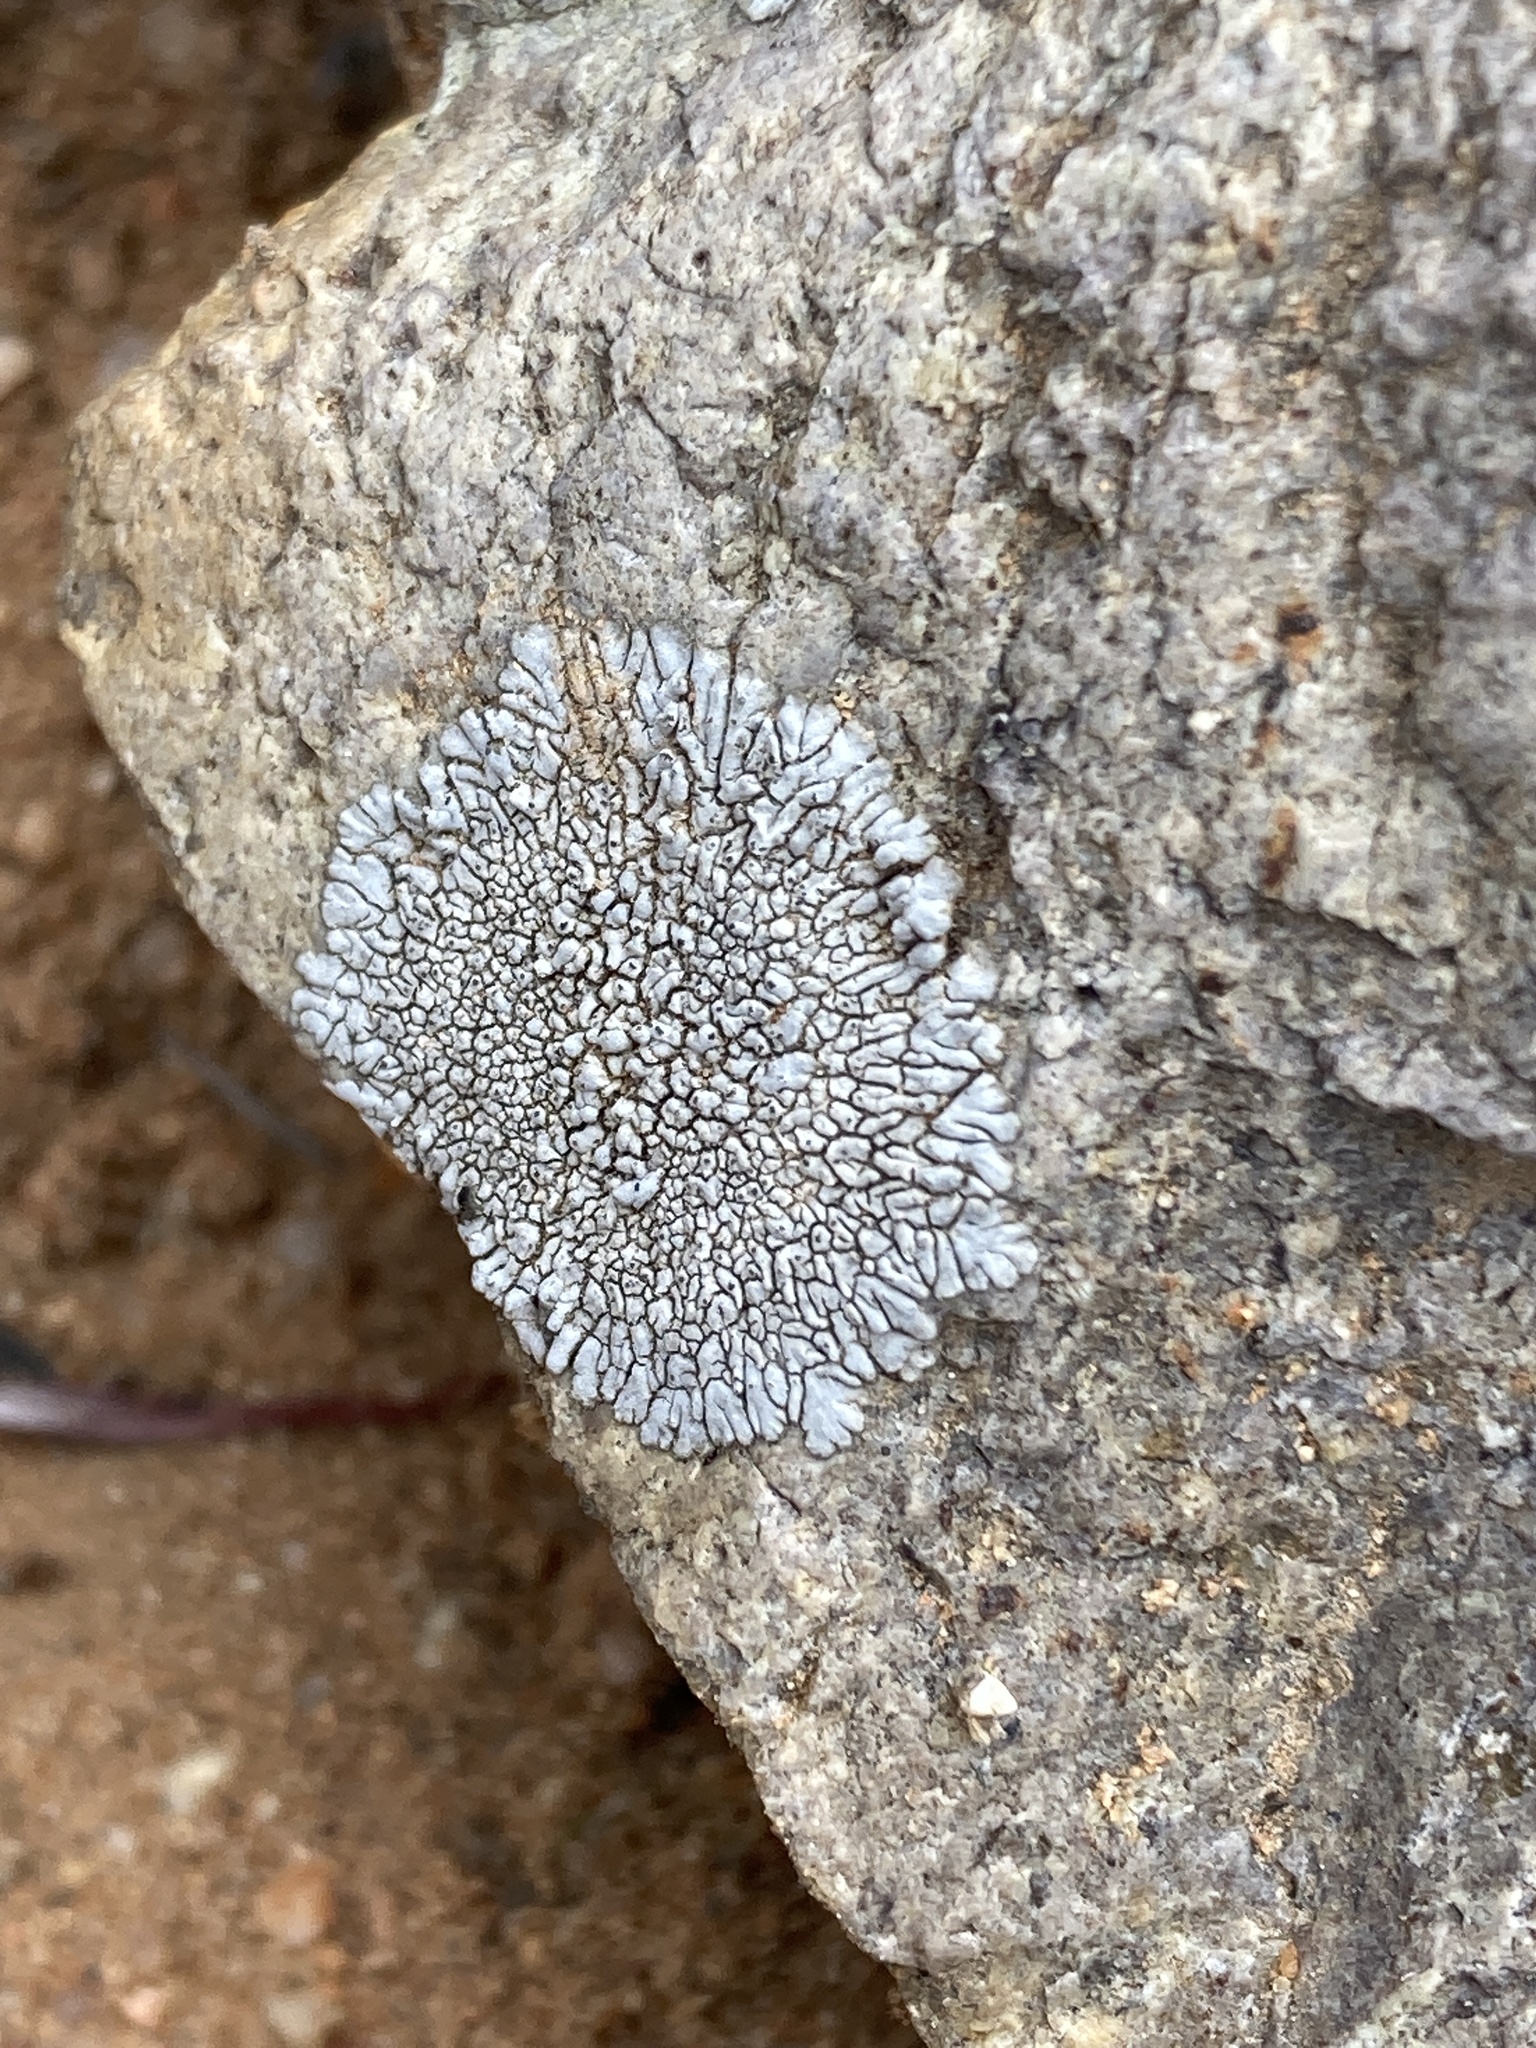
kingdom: Fungi
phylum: Ascomycota
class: Lecanoromycetes
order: Caliciales
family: Caliciaceae
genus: Dimelaena
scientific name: Dimelaena radiata
